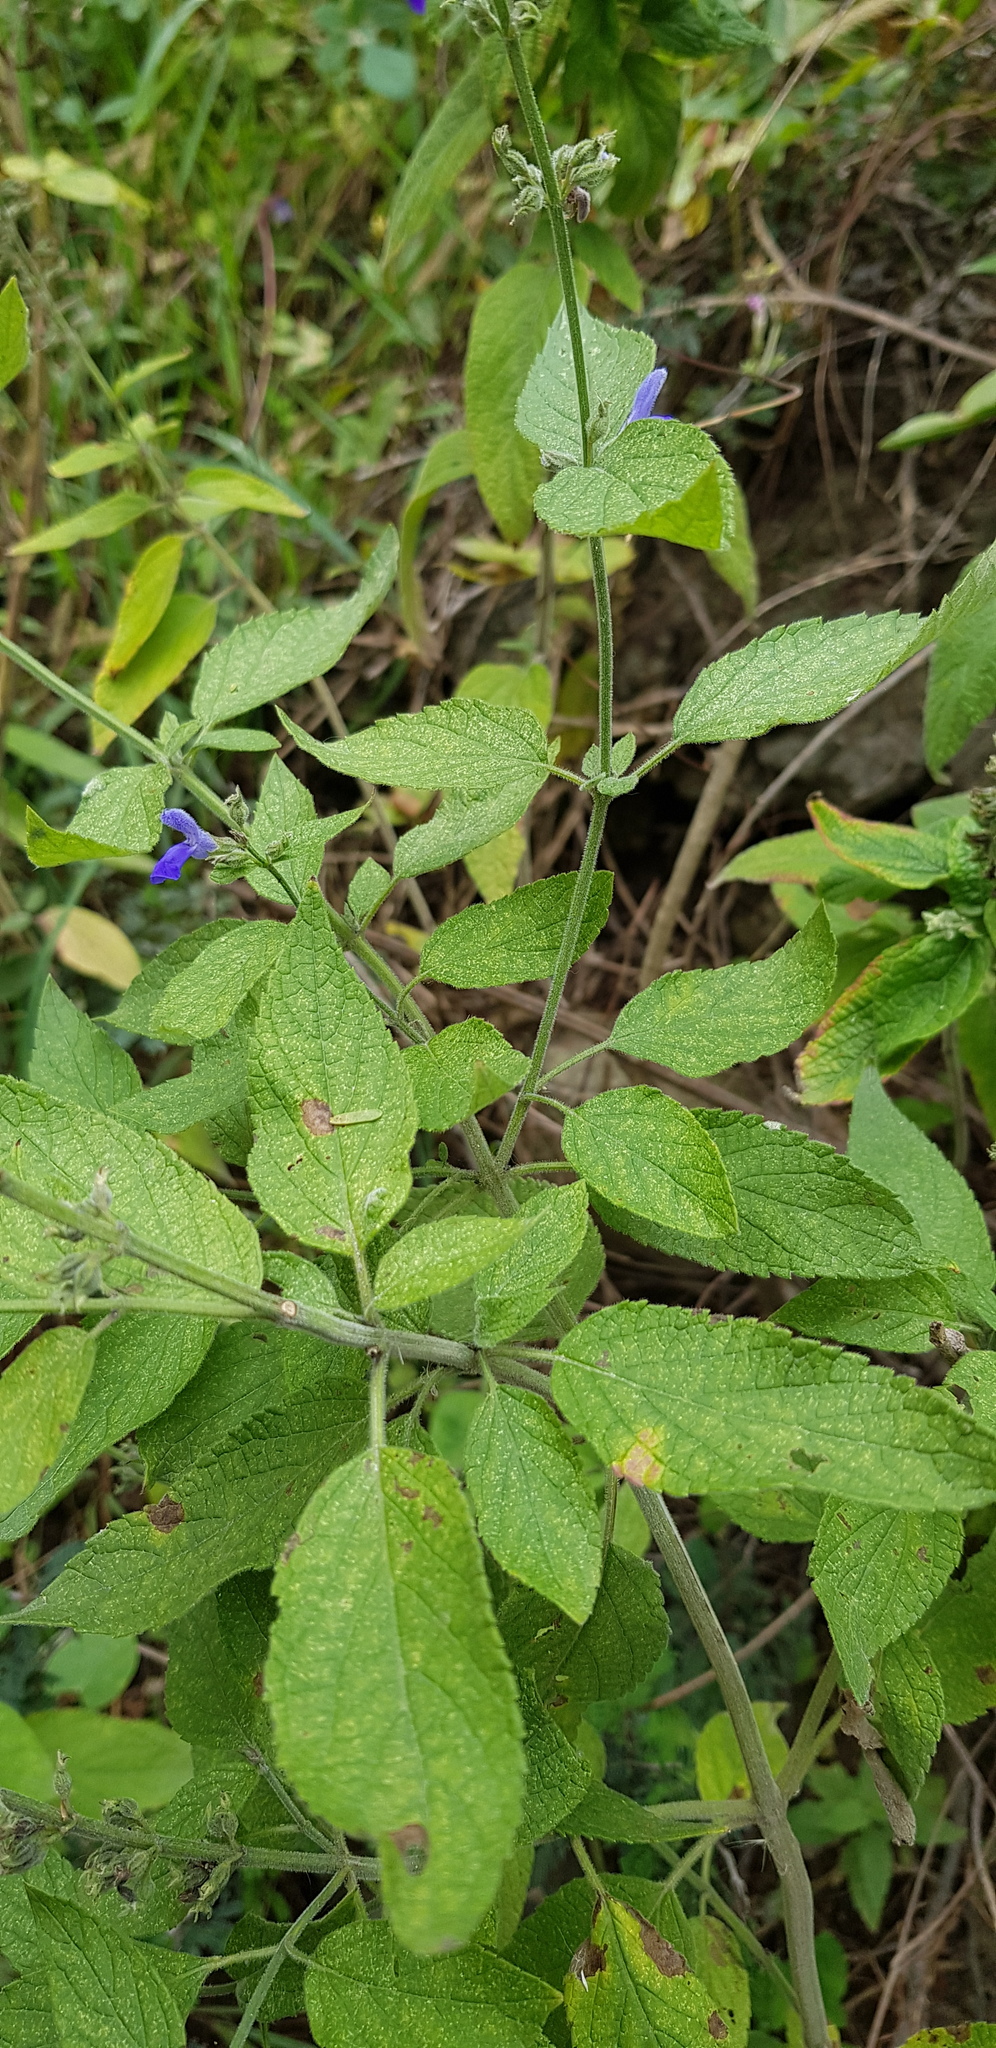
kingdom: Plantae
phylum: Tracheophyta
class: Magnoliopsida
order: Lamiales
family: Lamiaceae
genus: Salvia
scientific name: Salvia connivens
